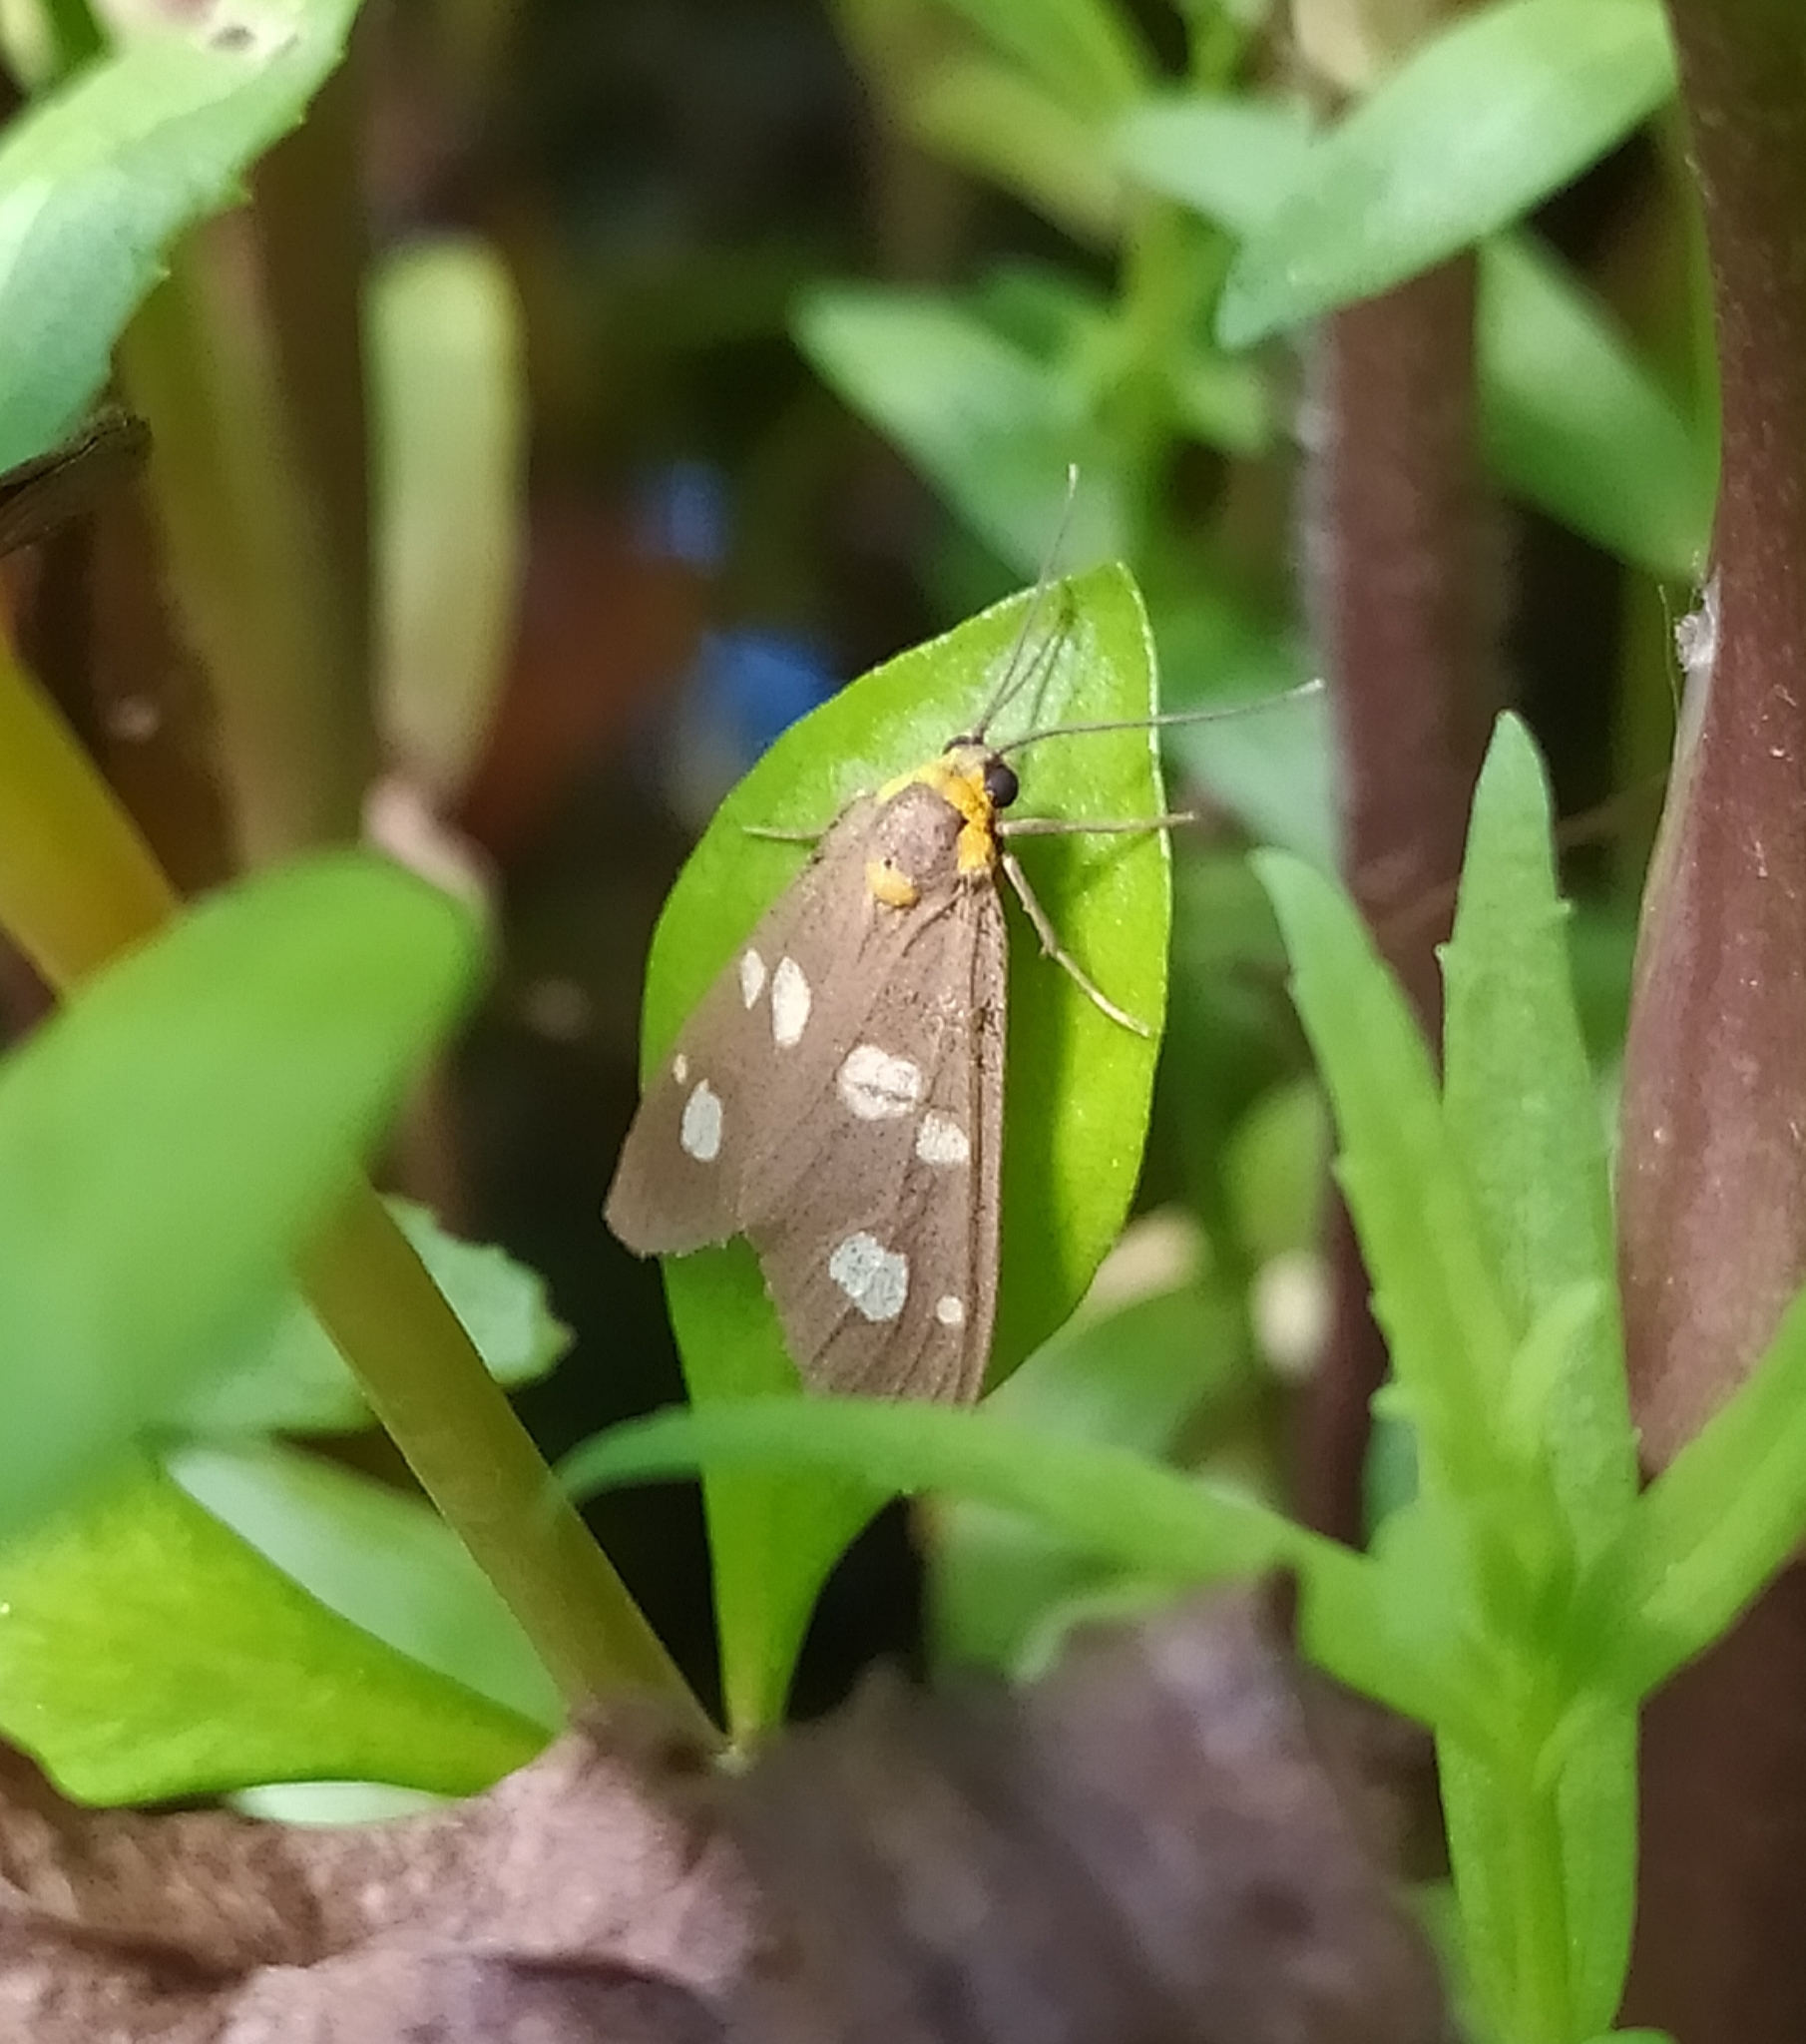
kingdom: Animalia
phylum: Arthropoda
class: Insecta
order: Lepidoptera
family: Erebidae
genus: Dysauxes
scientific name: Dysauxes punctata
